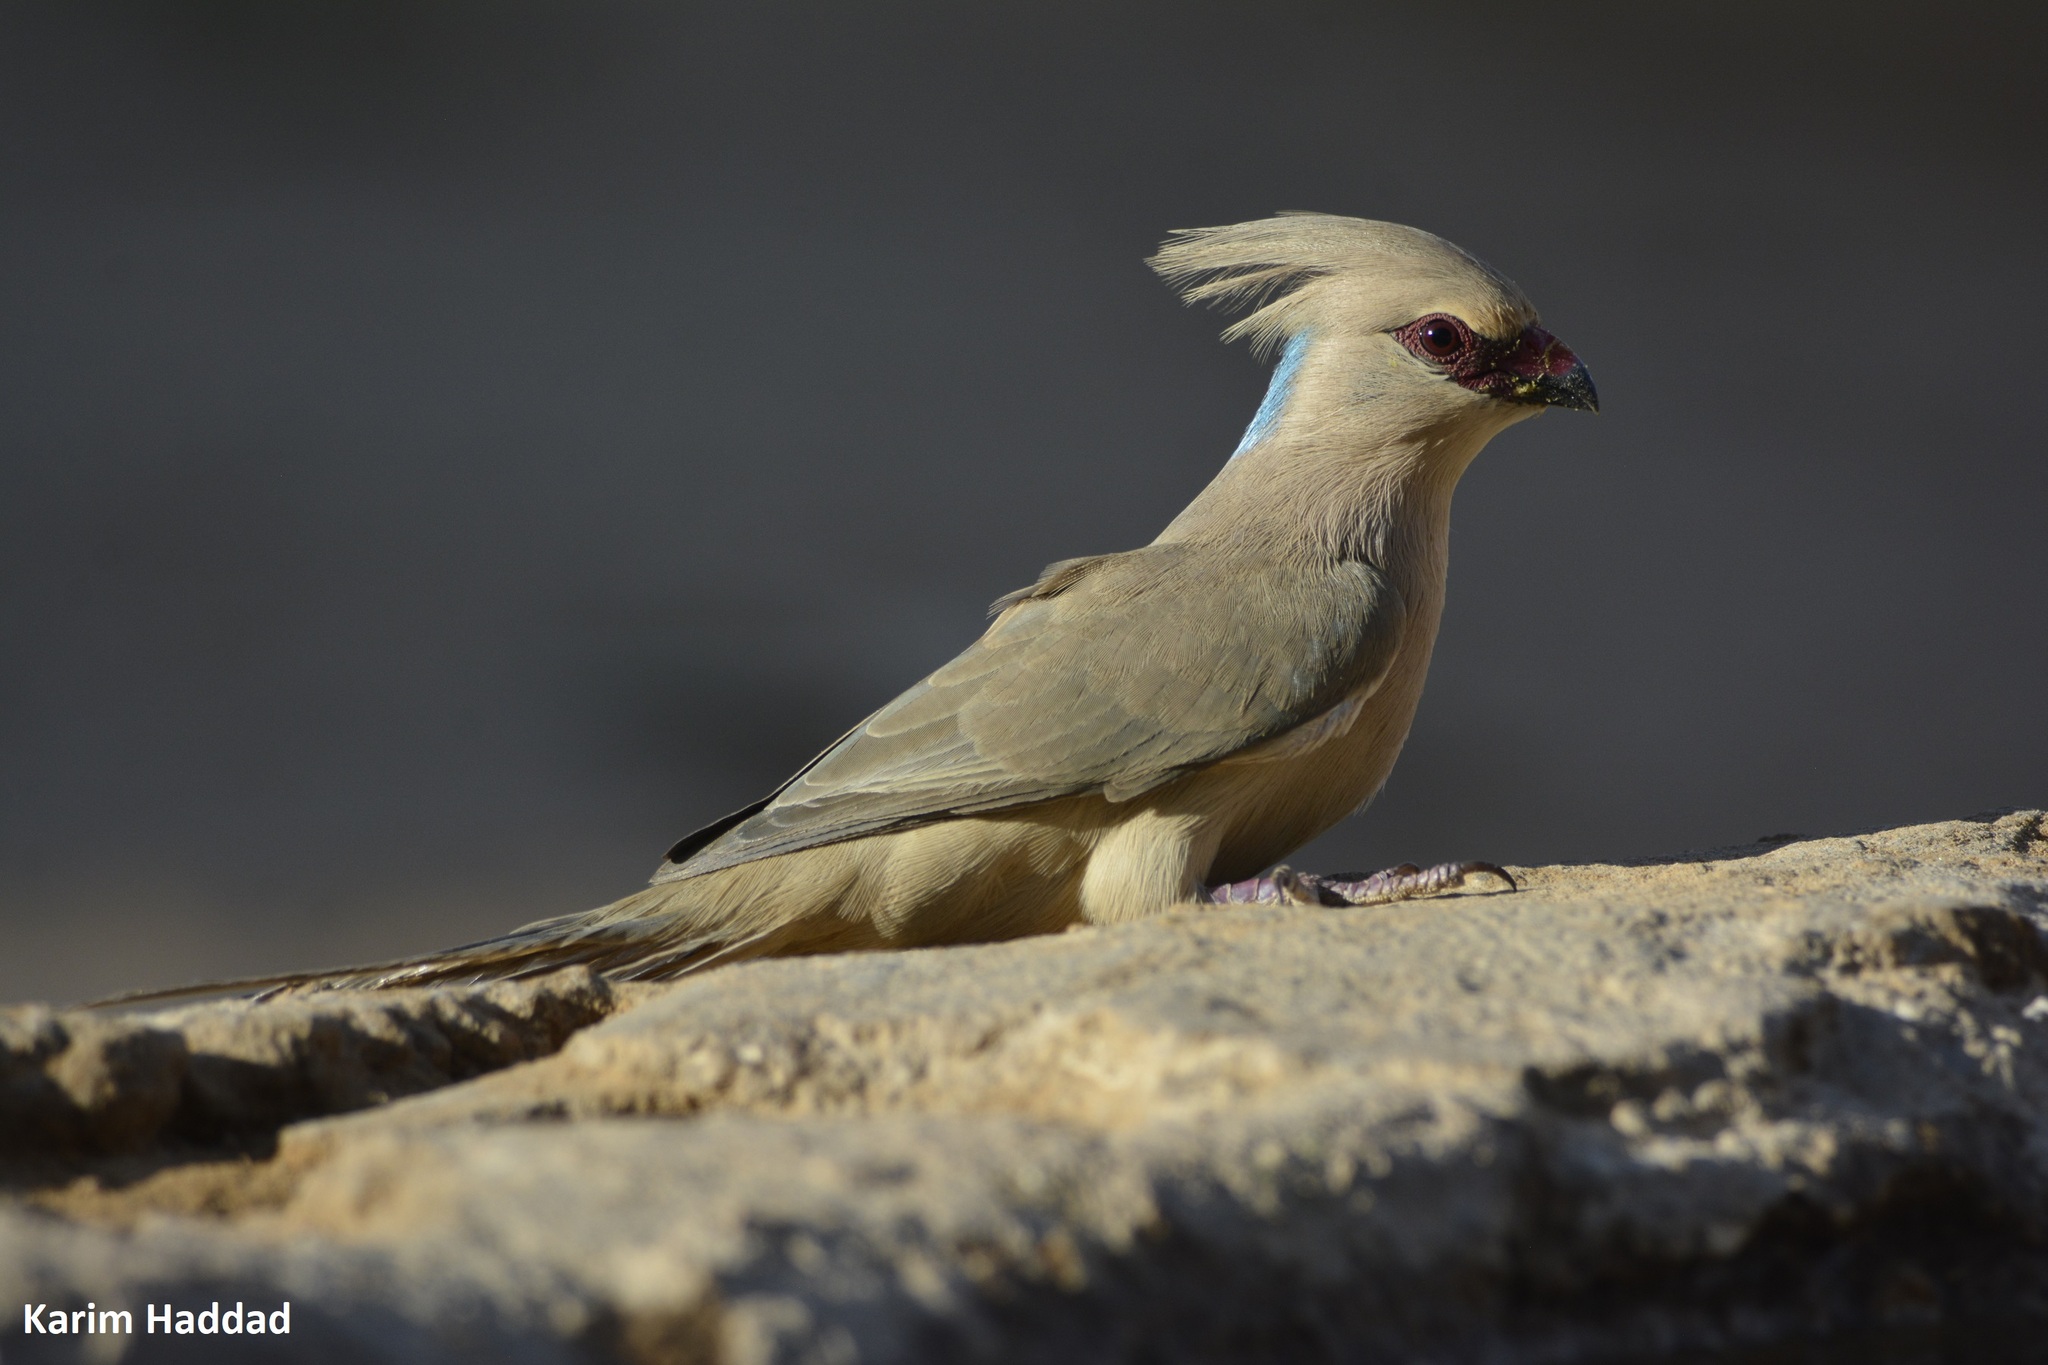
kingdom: Animalia
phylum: Chordata
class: Aves
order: Coliiformes
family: Coliidae
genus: Urocolius
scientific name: Urocolius macrourus
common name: Blue-naped mousebird
